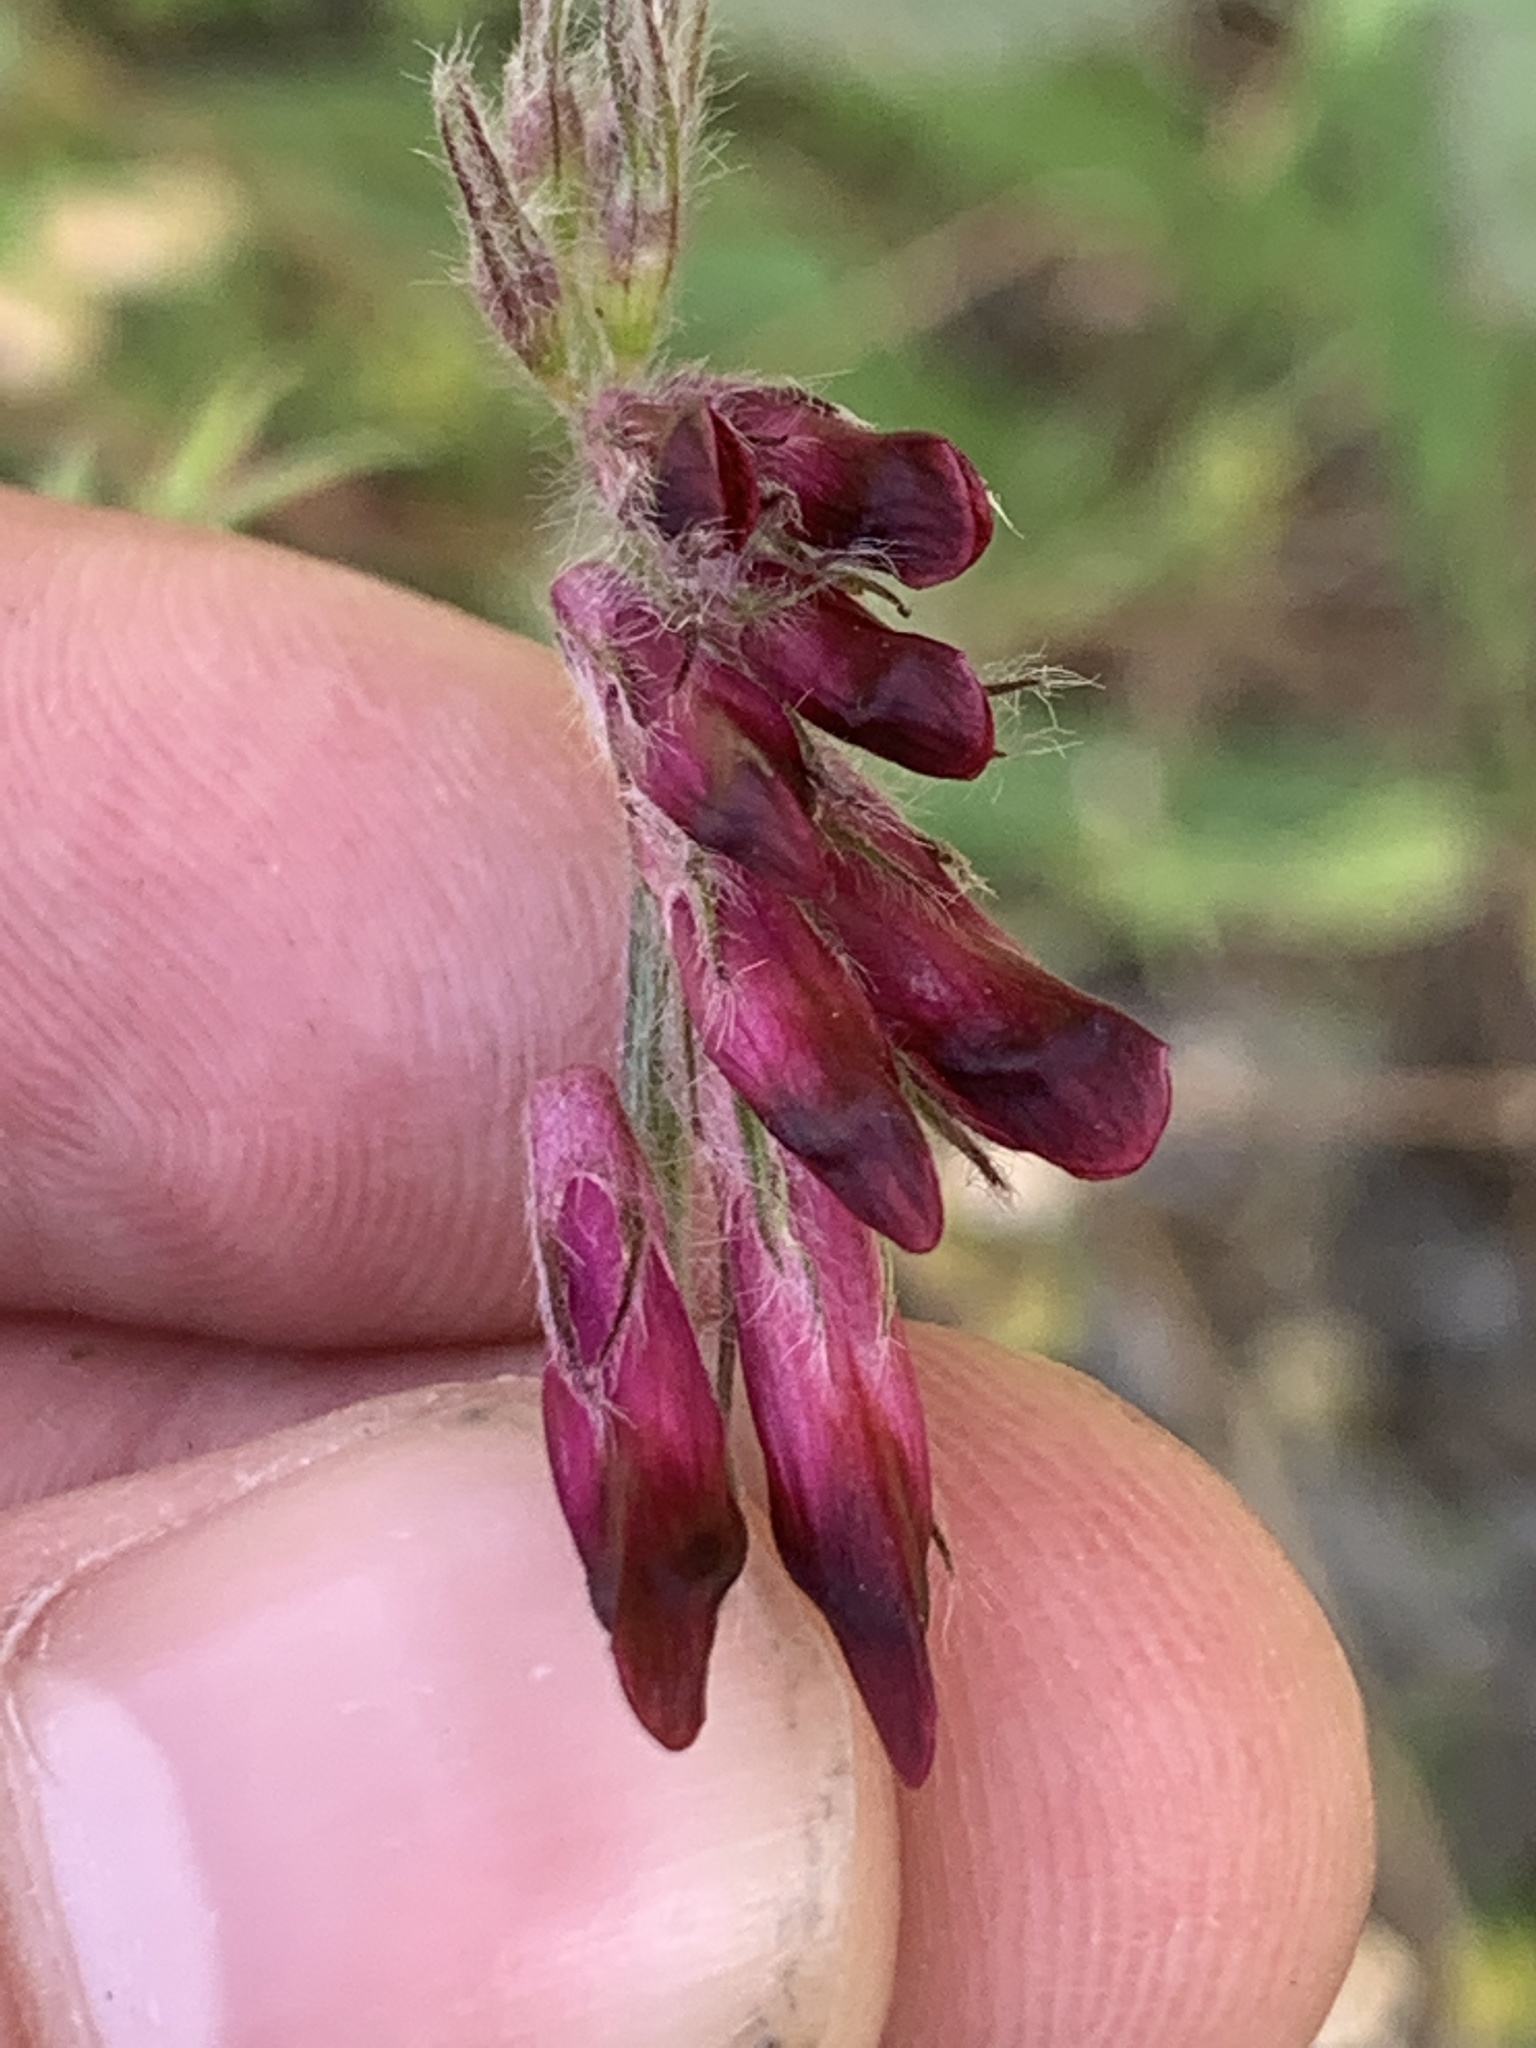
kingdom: Plantae
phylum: Tracheophyta
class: Magnoliopsida
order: Fabales
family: Fabaceae
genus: Vicia
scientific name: Vicia benghalensis
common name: Purple vetch
